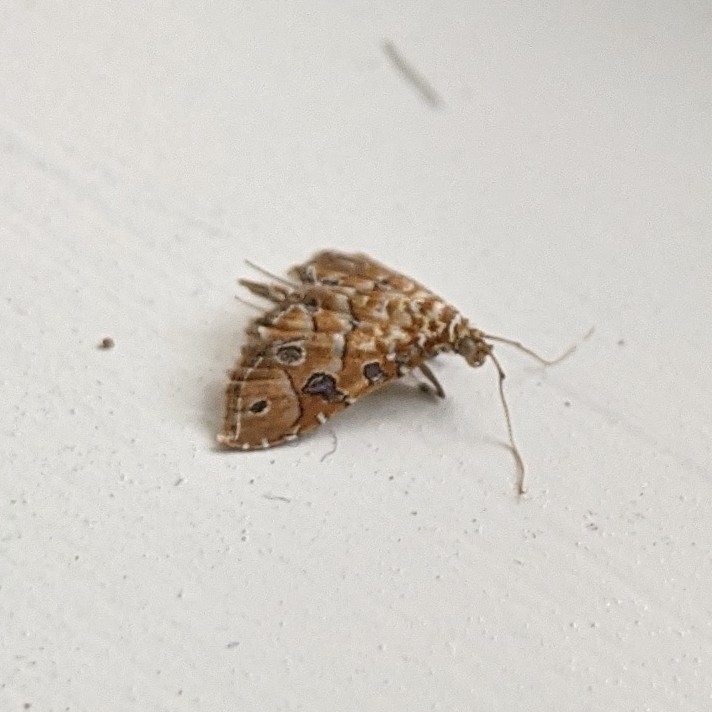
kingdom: Animalia
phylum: Arthropoda
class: Insecta
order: Lepidoptera
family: Crambidae
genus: Ommatospila
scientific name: Ommatospila narcaeusalis
